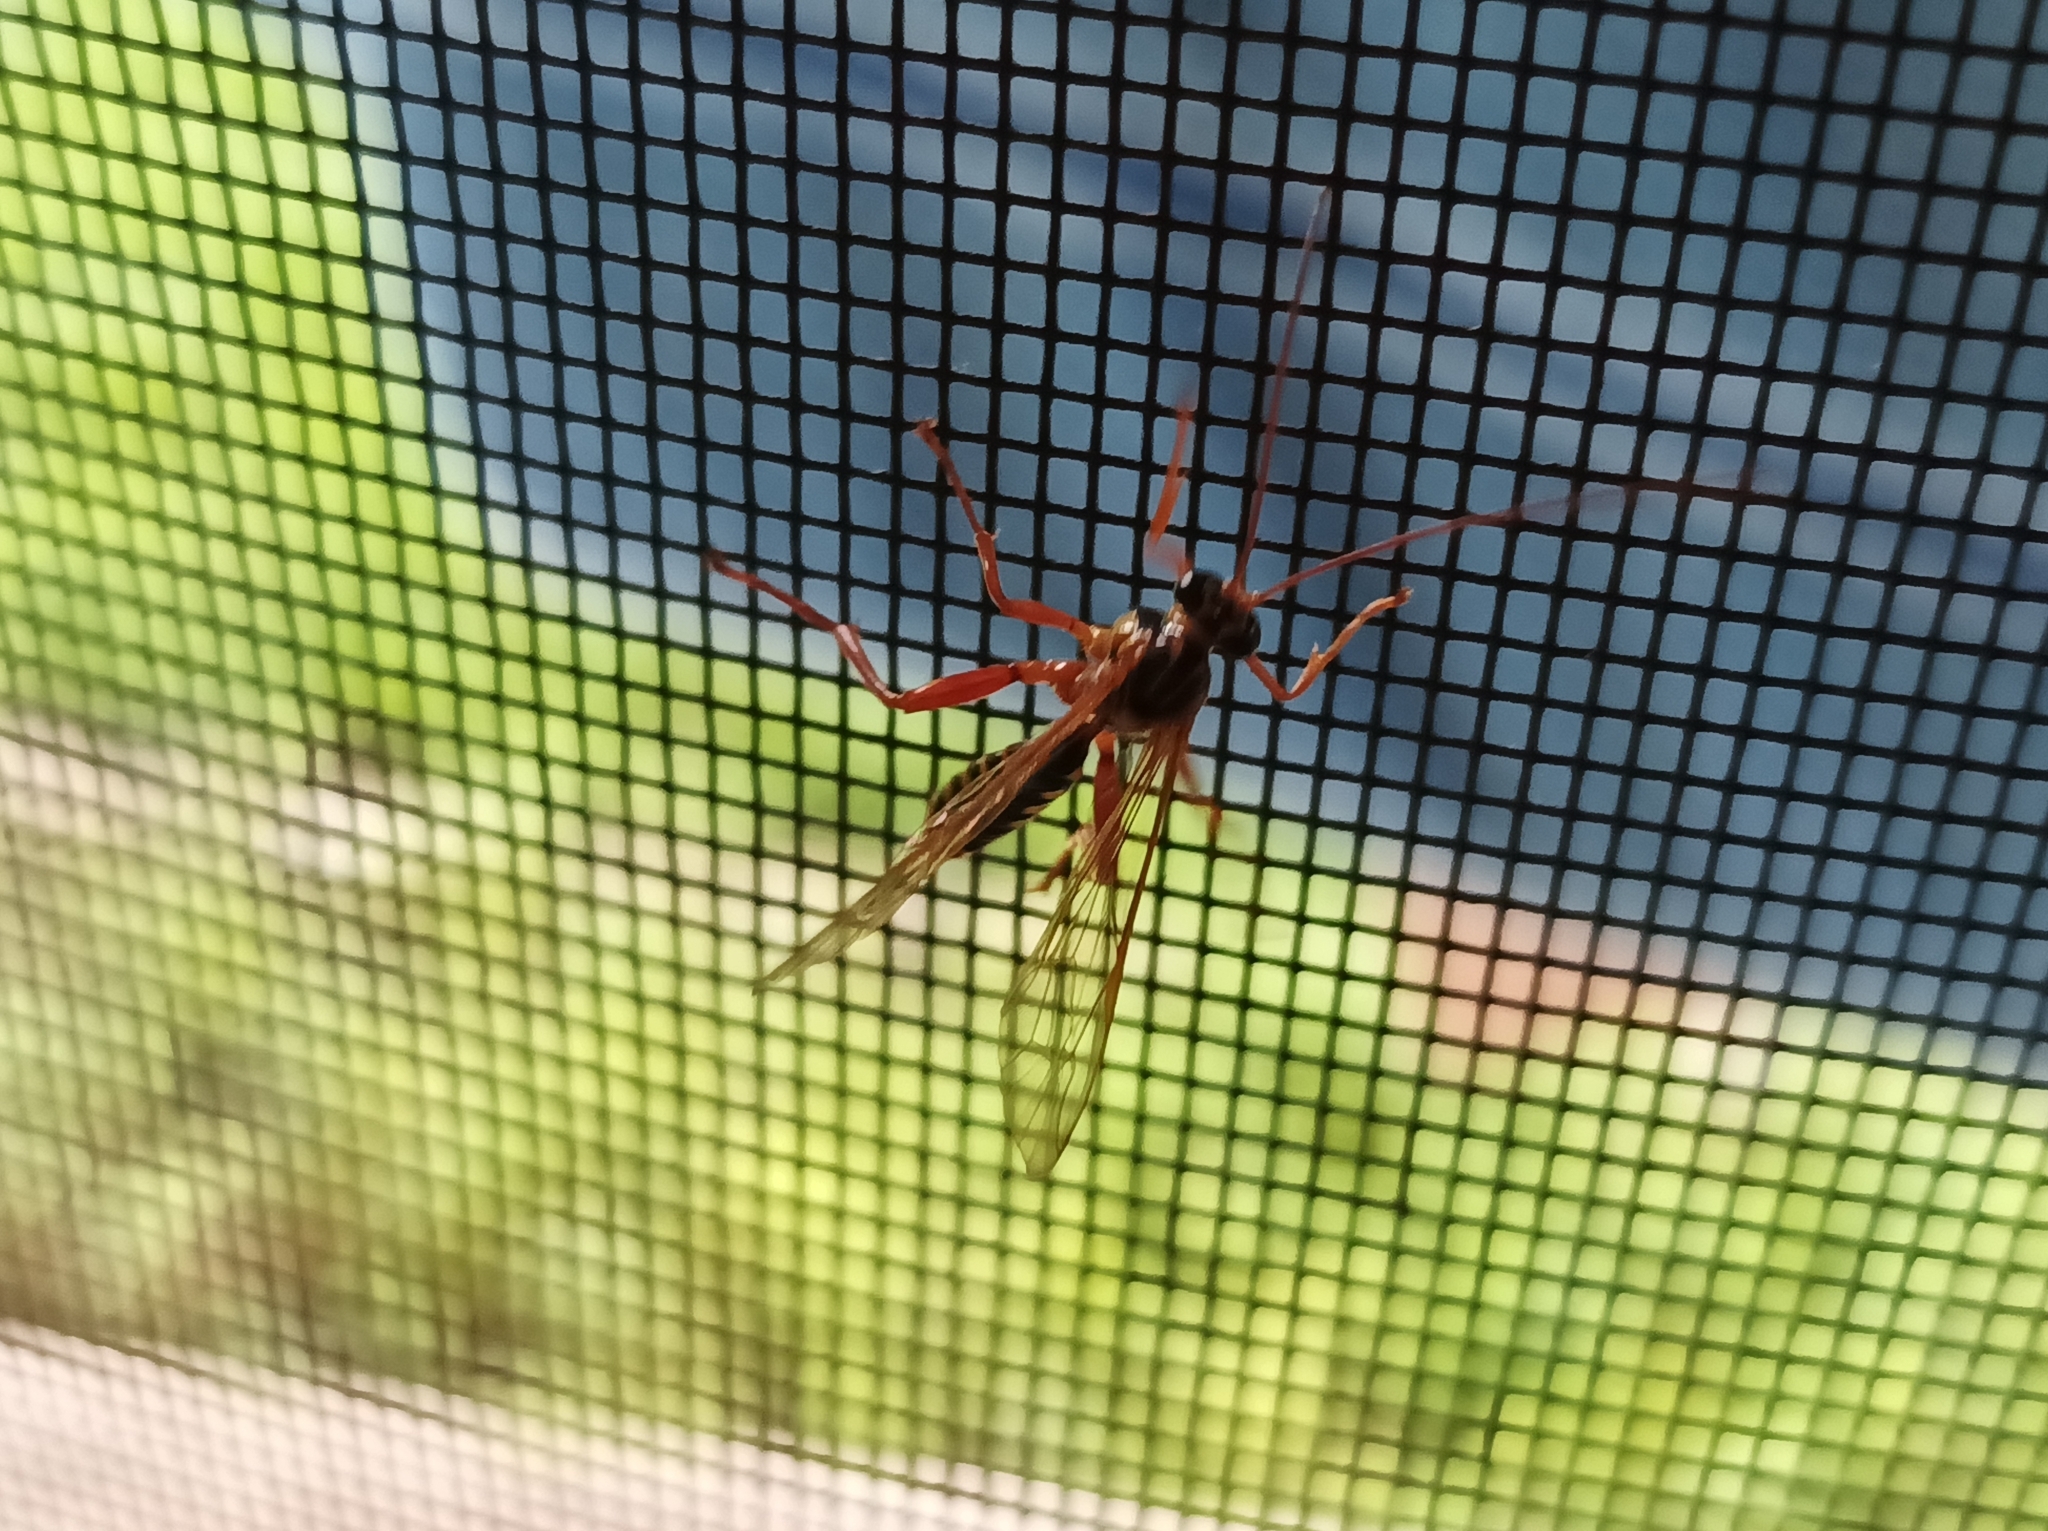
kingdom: Animalia
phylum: Arthropoda
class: Insecta
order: Hymenoptera
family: Ichneumonidae
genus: Echthromorpha
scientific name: Echthromorpha agrestoria
